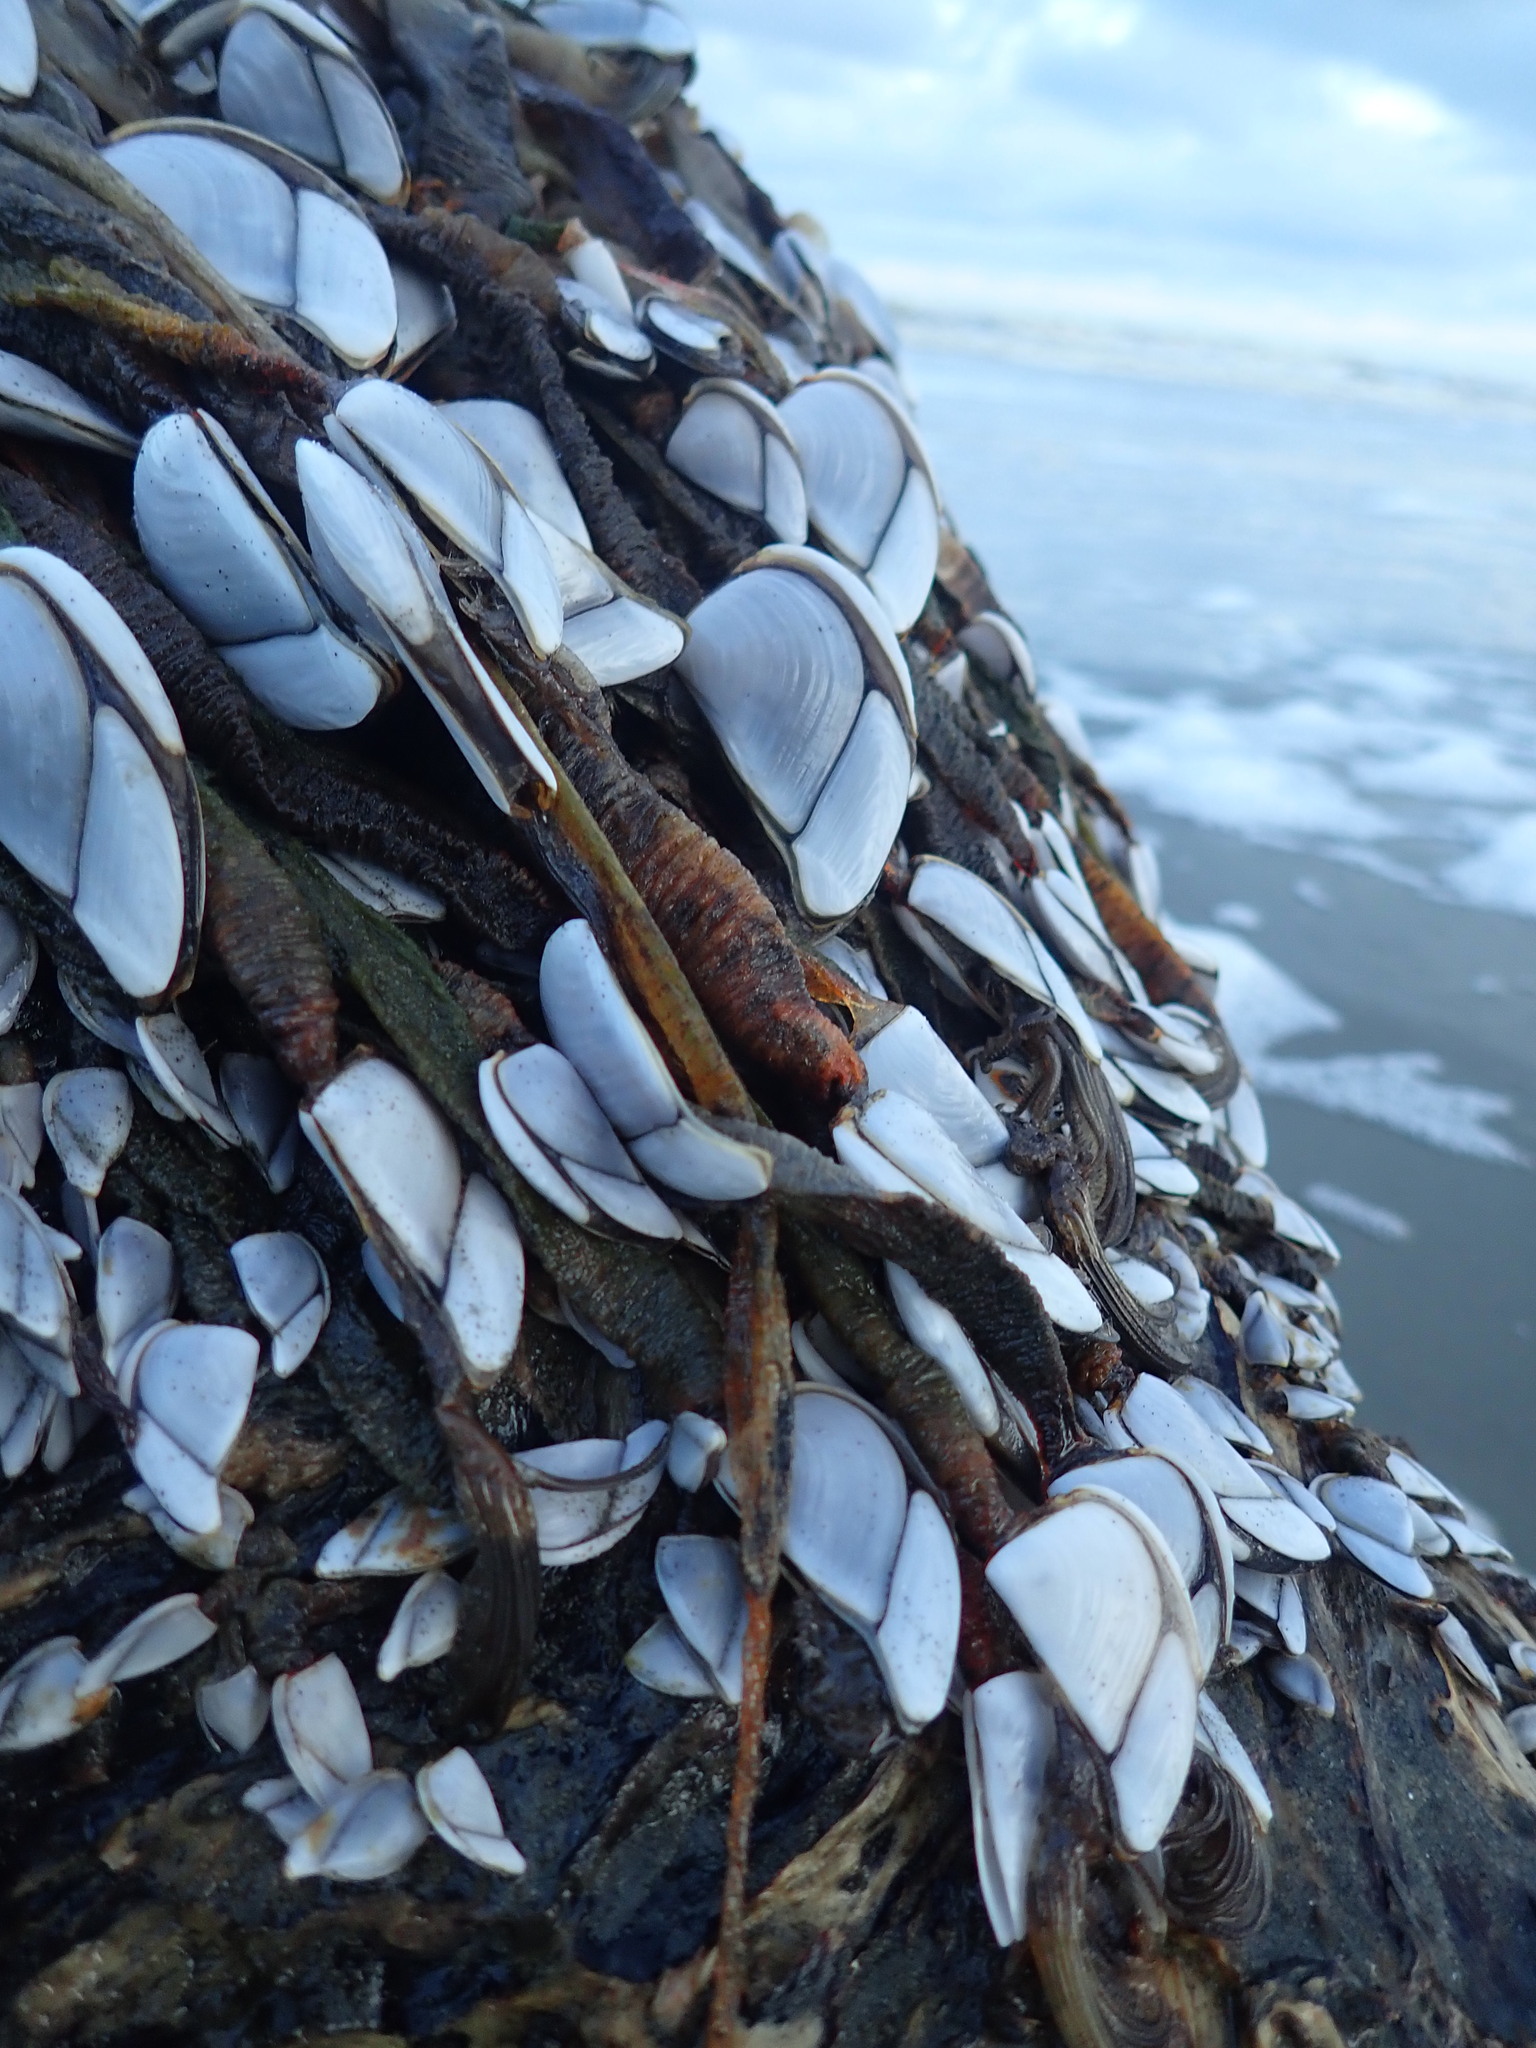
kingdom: Animalia
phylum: Arthropoda
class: Maxillopoda
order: Pedunculata
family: Lepadidae
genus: Lepas
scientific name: Lepas testudinata
